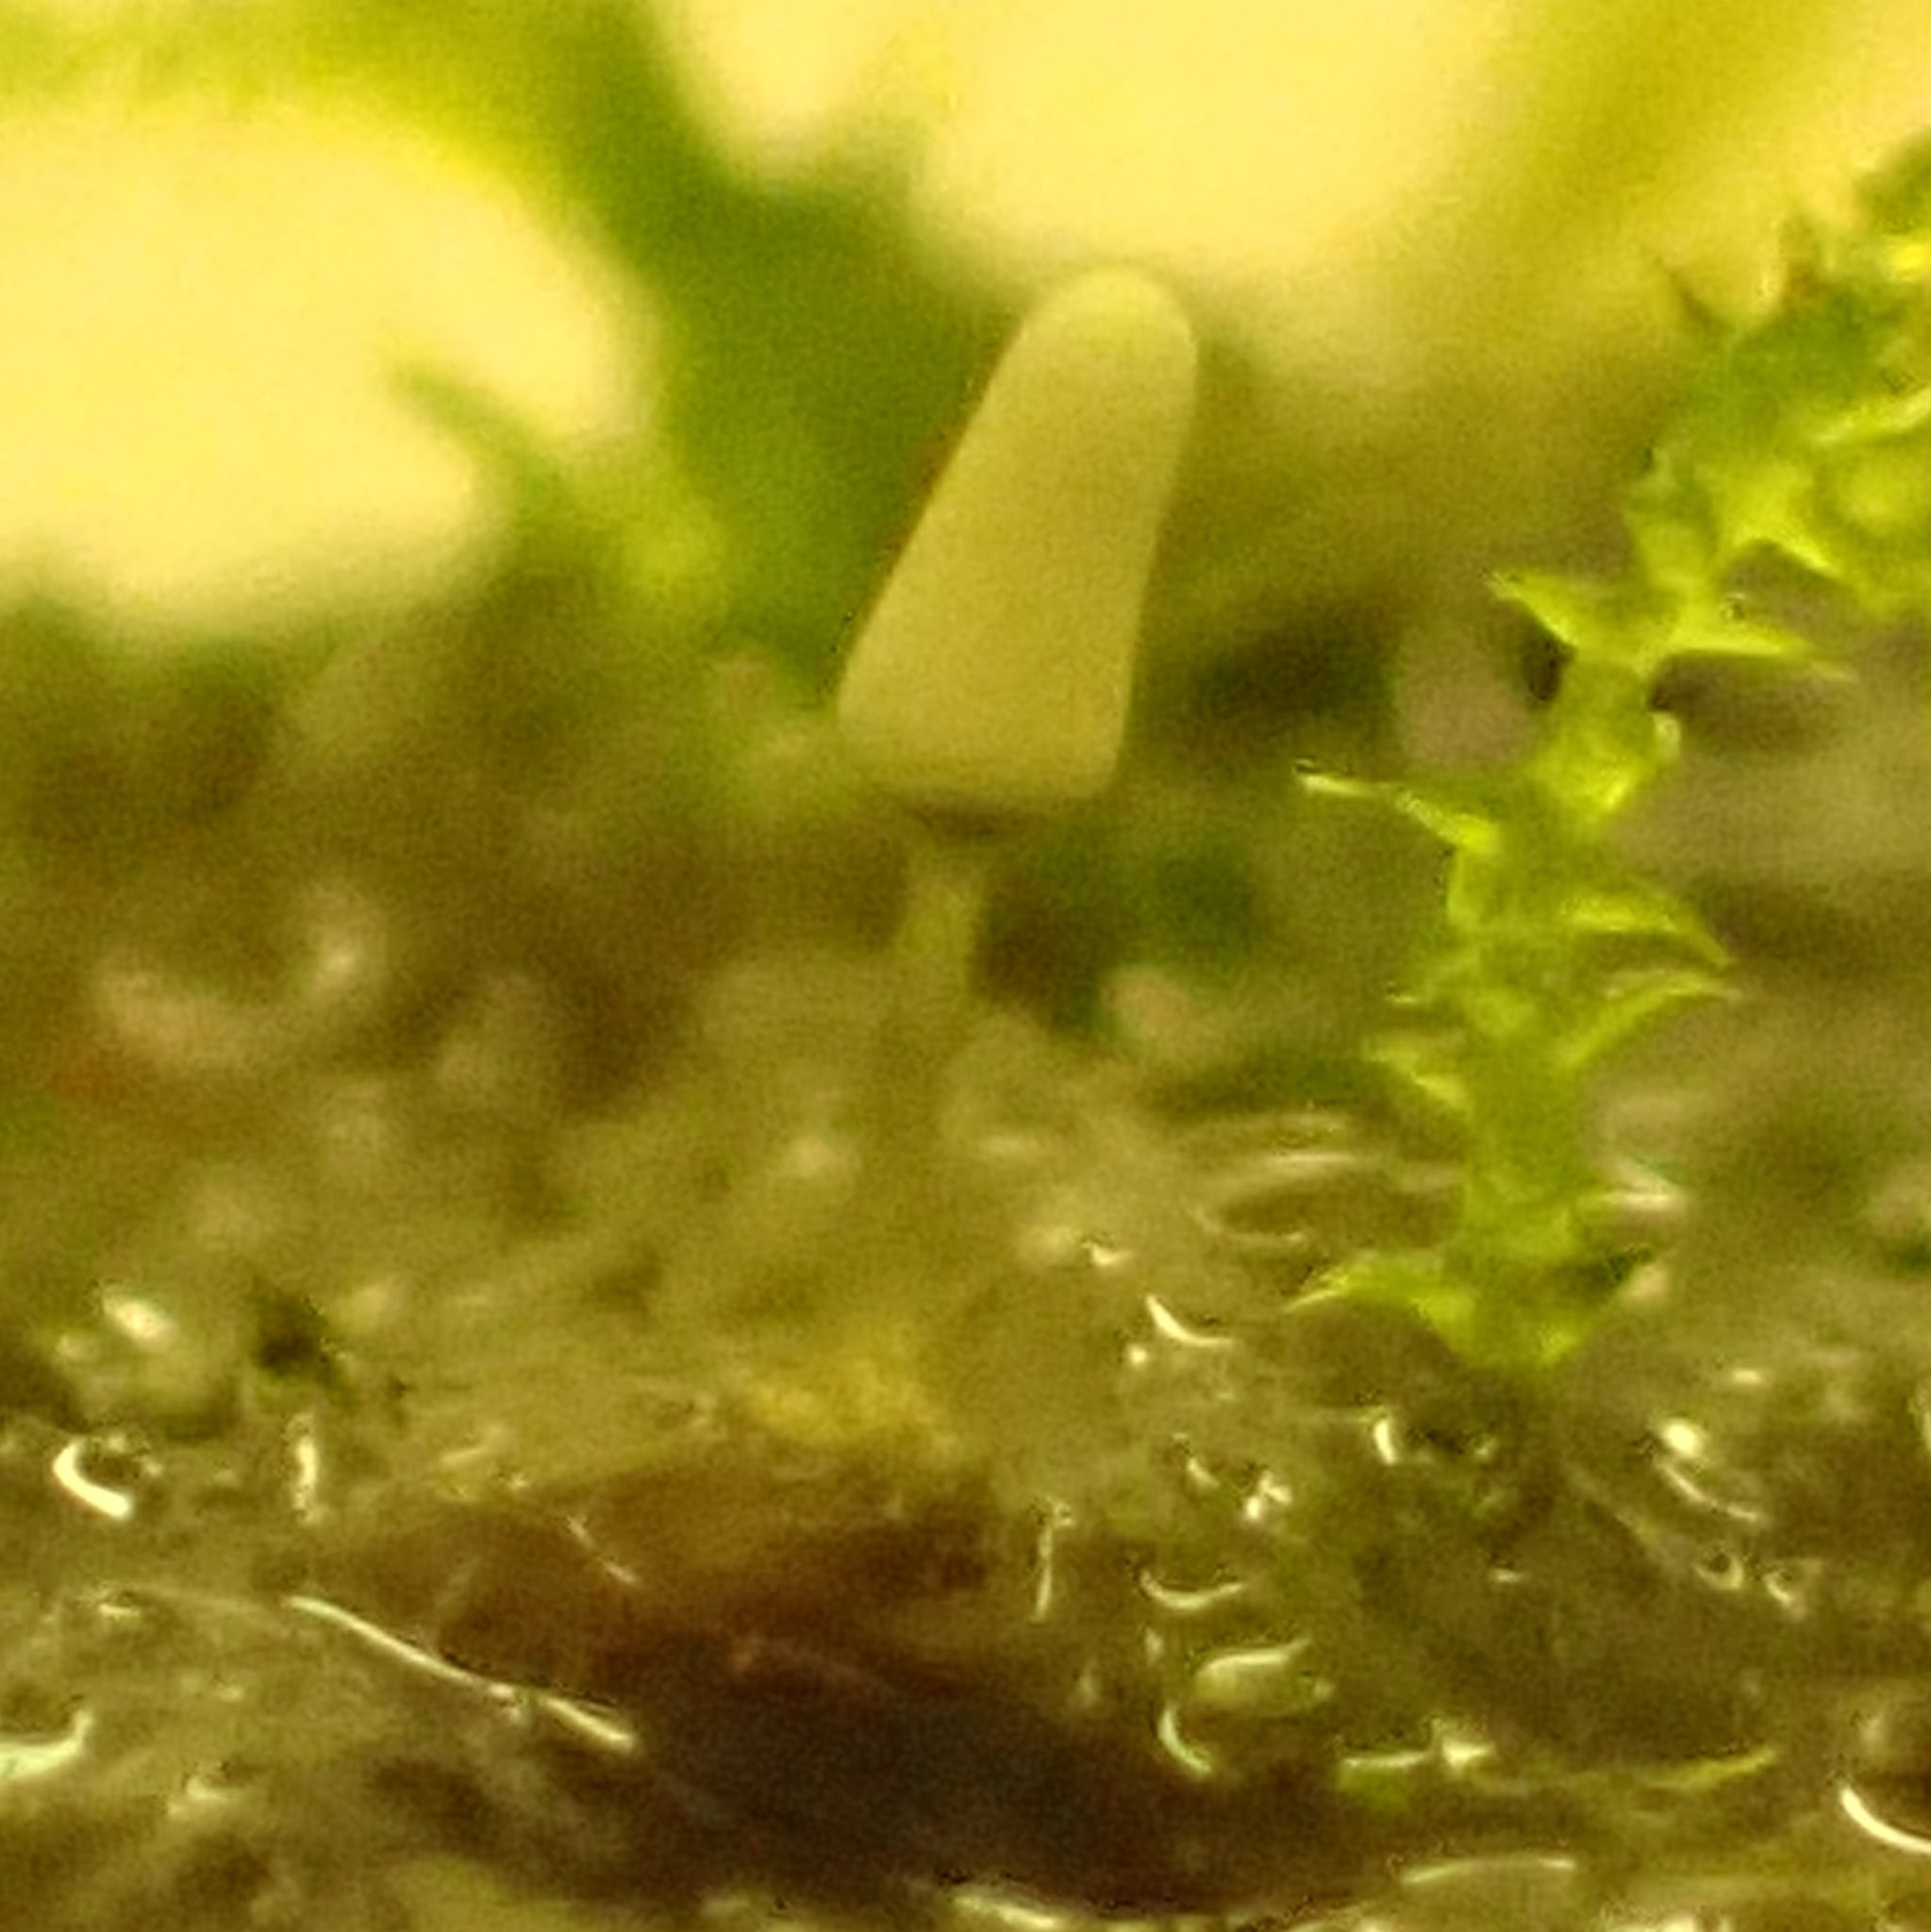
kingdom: Protozoa
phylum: Mycetozoa
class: Myxomycetes
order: Trichiales
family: Arcyriaceae
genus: Arcyria
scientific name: Arcyria cinerea
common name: White carnival candy slime mold
